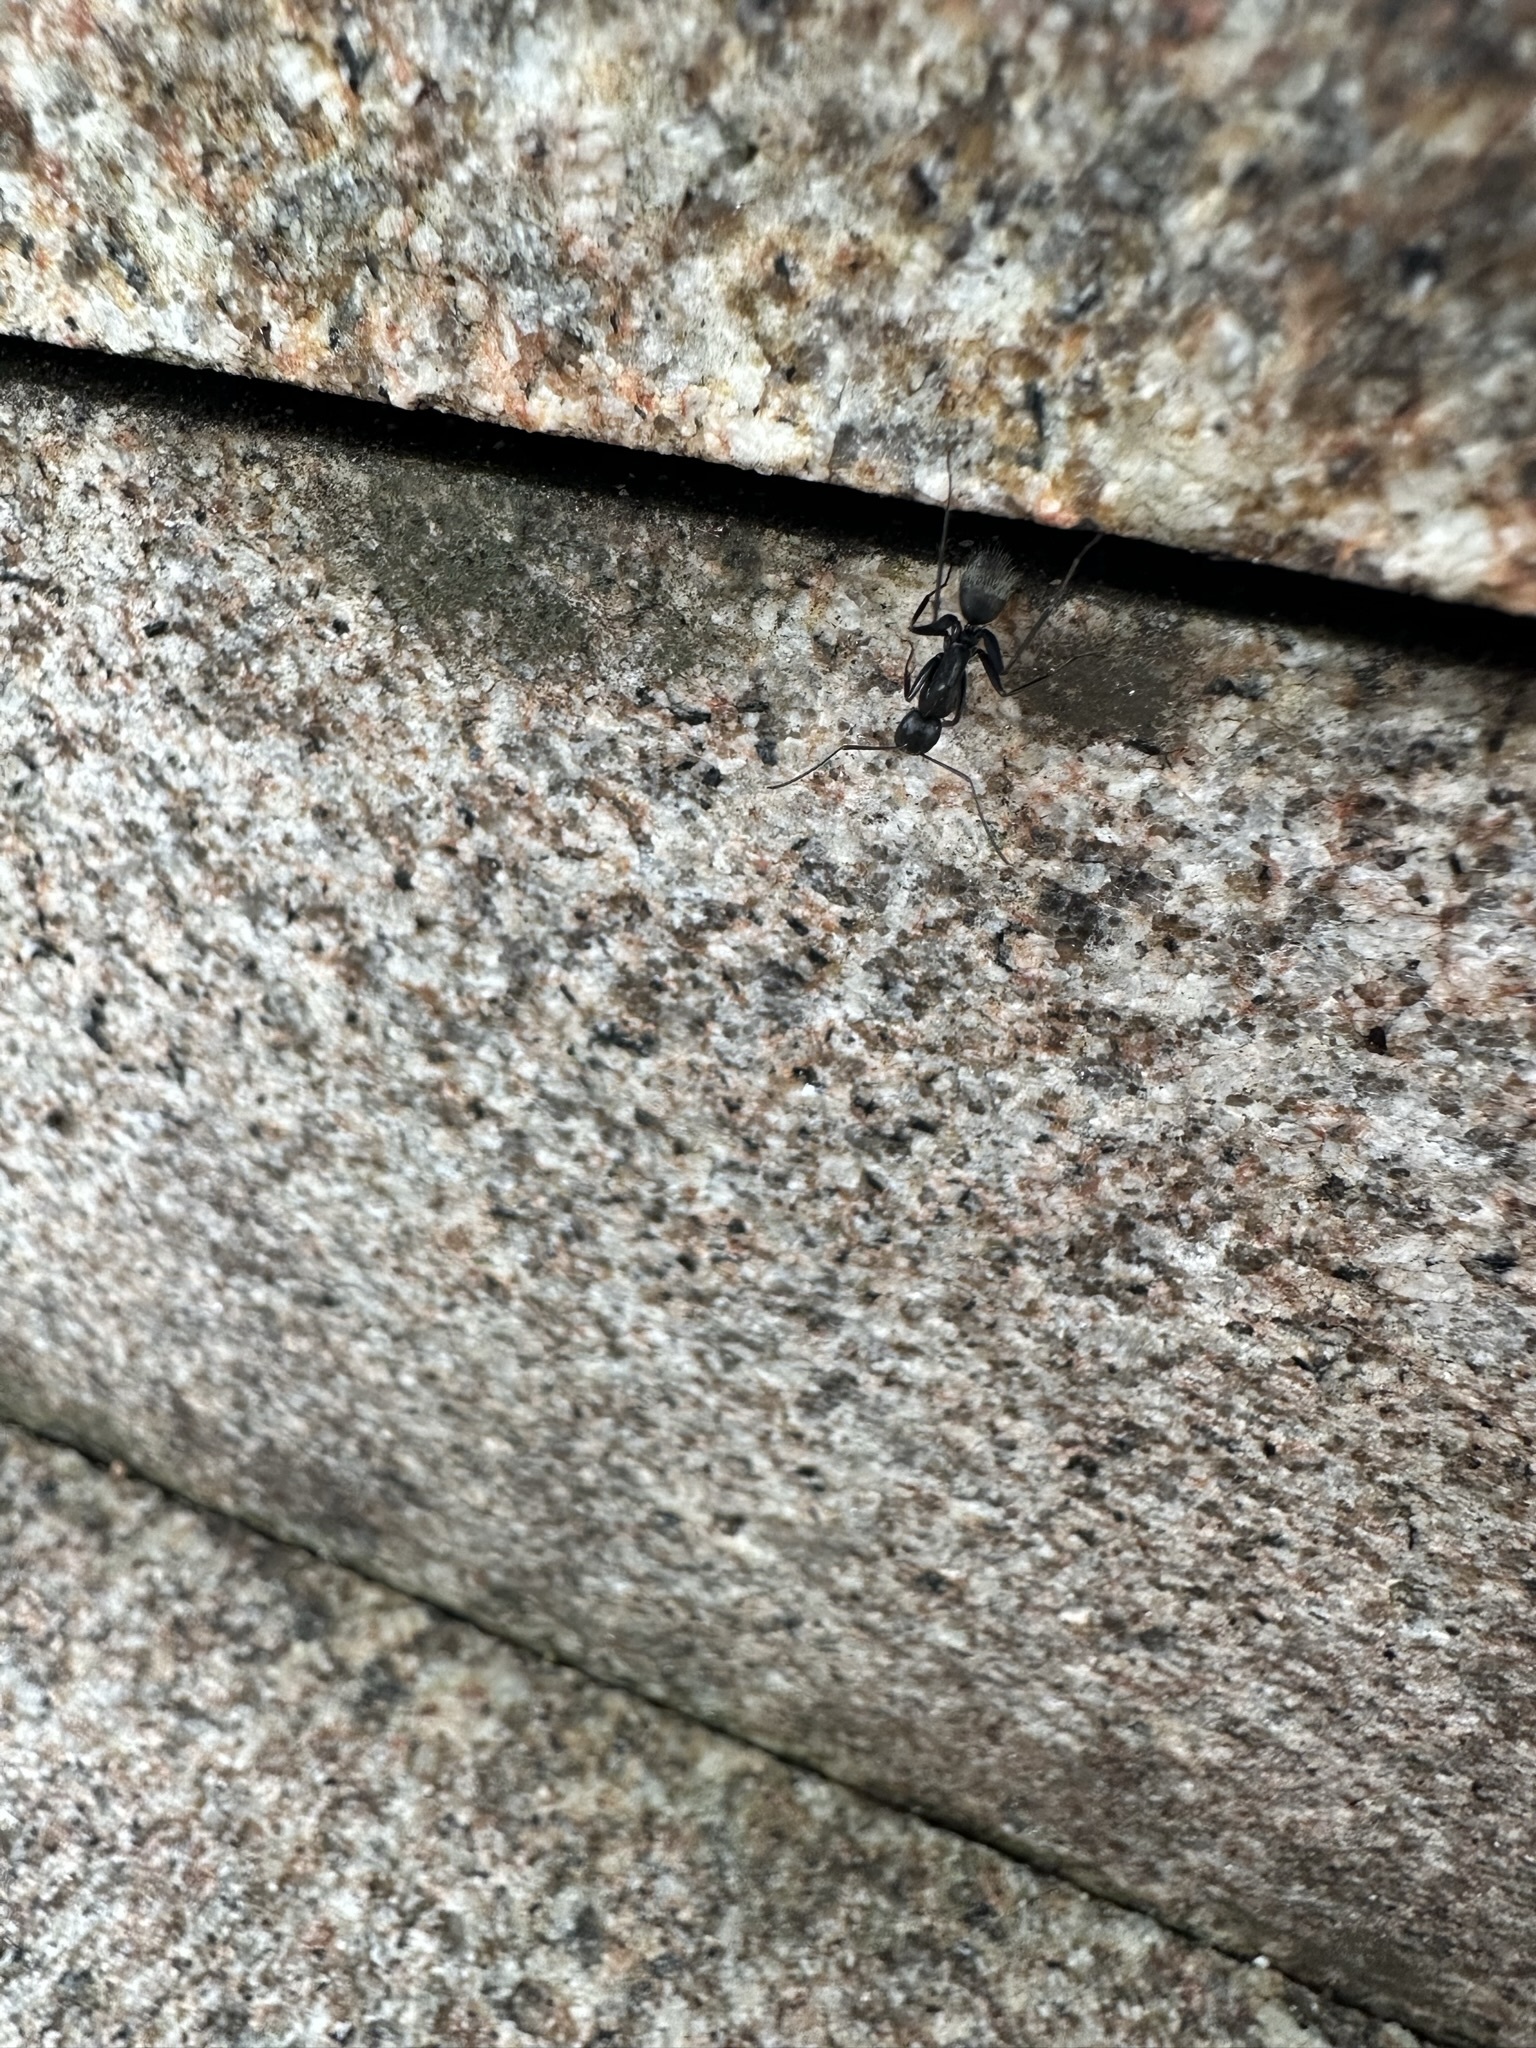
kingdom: Animalia
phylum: Arthropoda
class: Insecta
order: Hymenoptera
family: Formicidae
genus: Camponotus
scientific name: Camponotus japonicus
